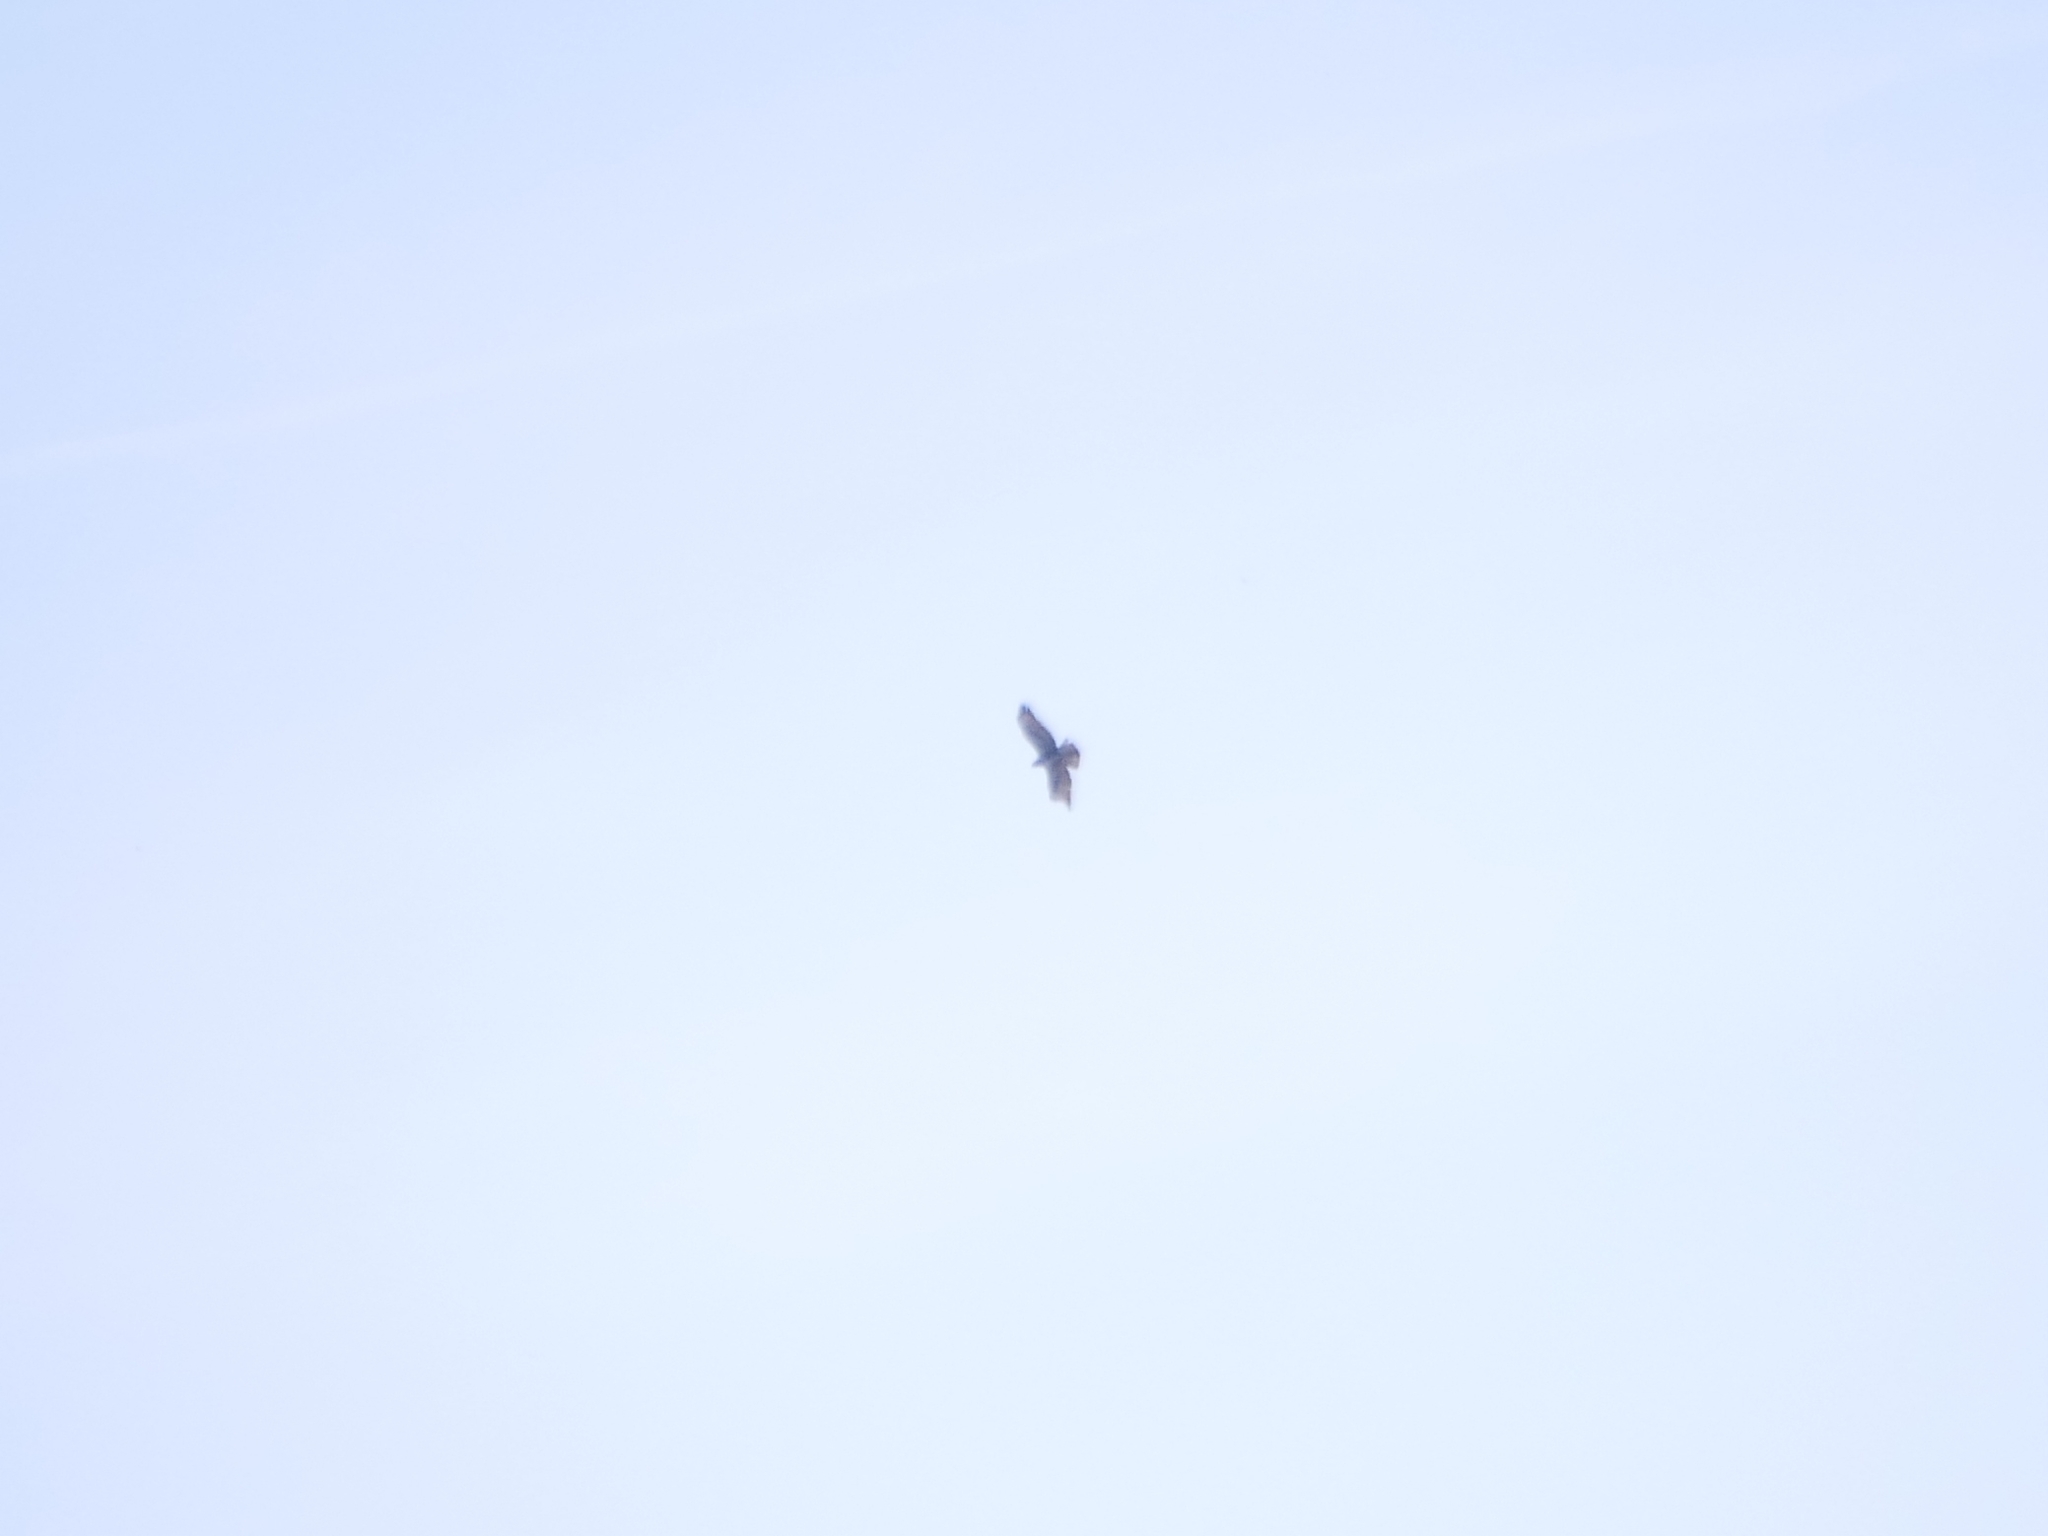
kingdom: Animalia
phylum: Chordata
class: Aves
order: Accipitriformes
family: Accipitridae
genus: Buteo
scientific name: Buteo buteo
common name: Common buzzard
